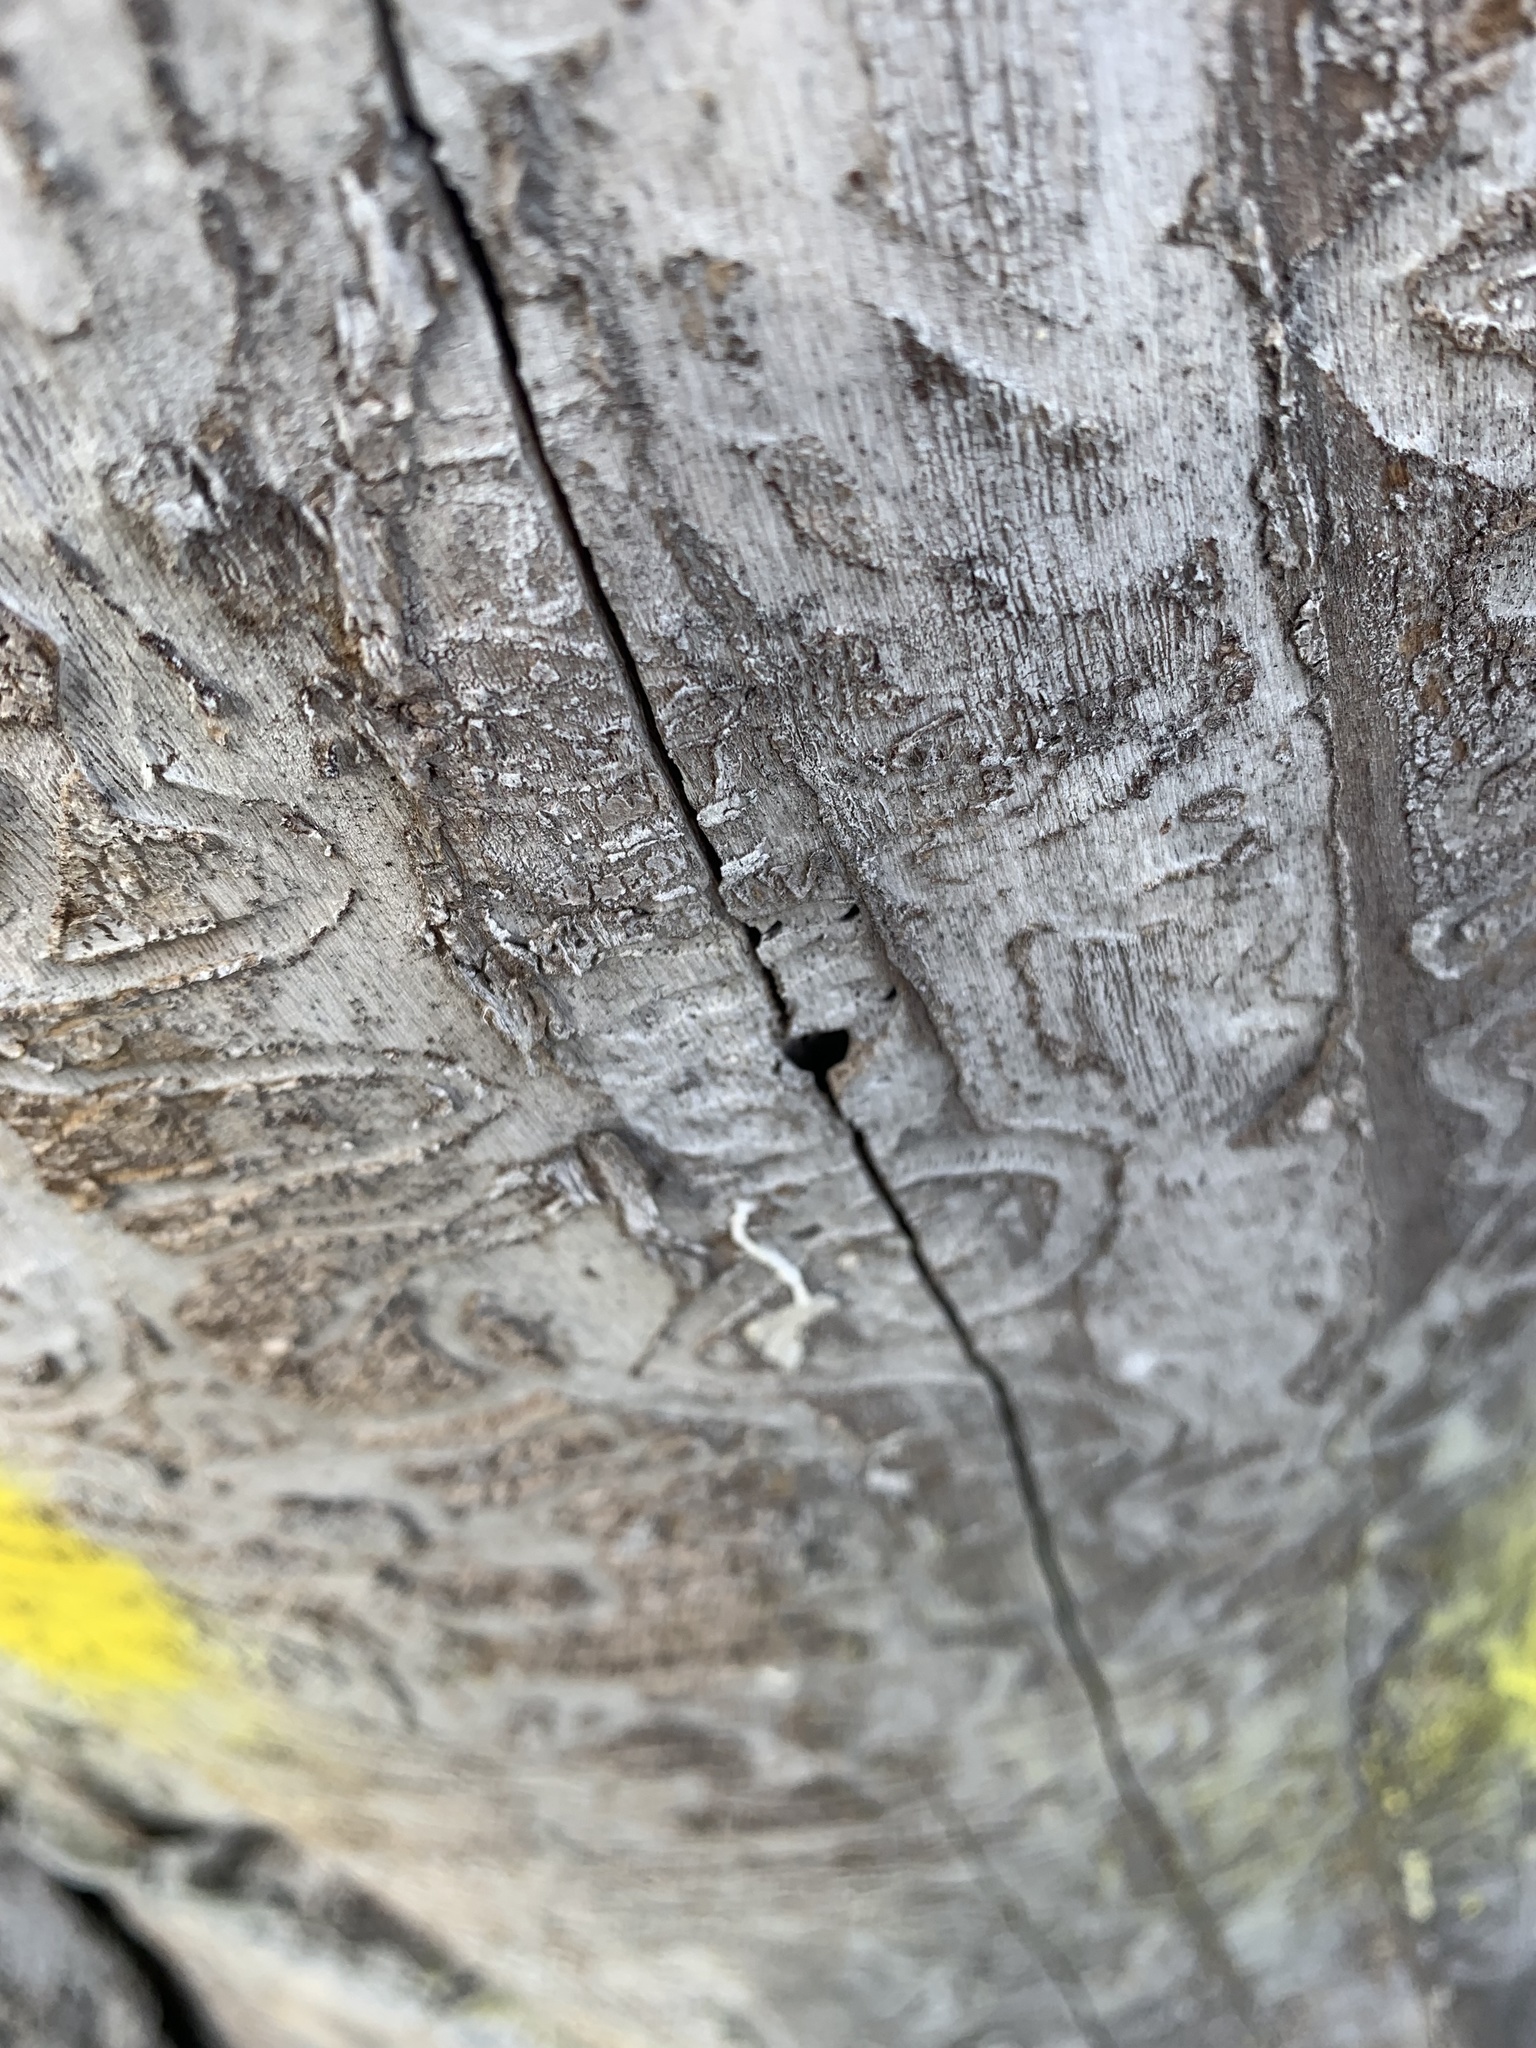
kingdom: Animalia
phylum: Arthropoda
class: Insecta
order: Coleoptera
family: Buprestidae
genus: Agrilus
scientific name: Agrilus planipennis
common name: Emerald ash borer
